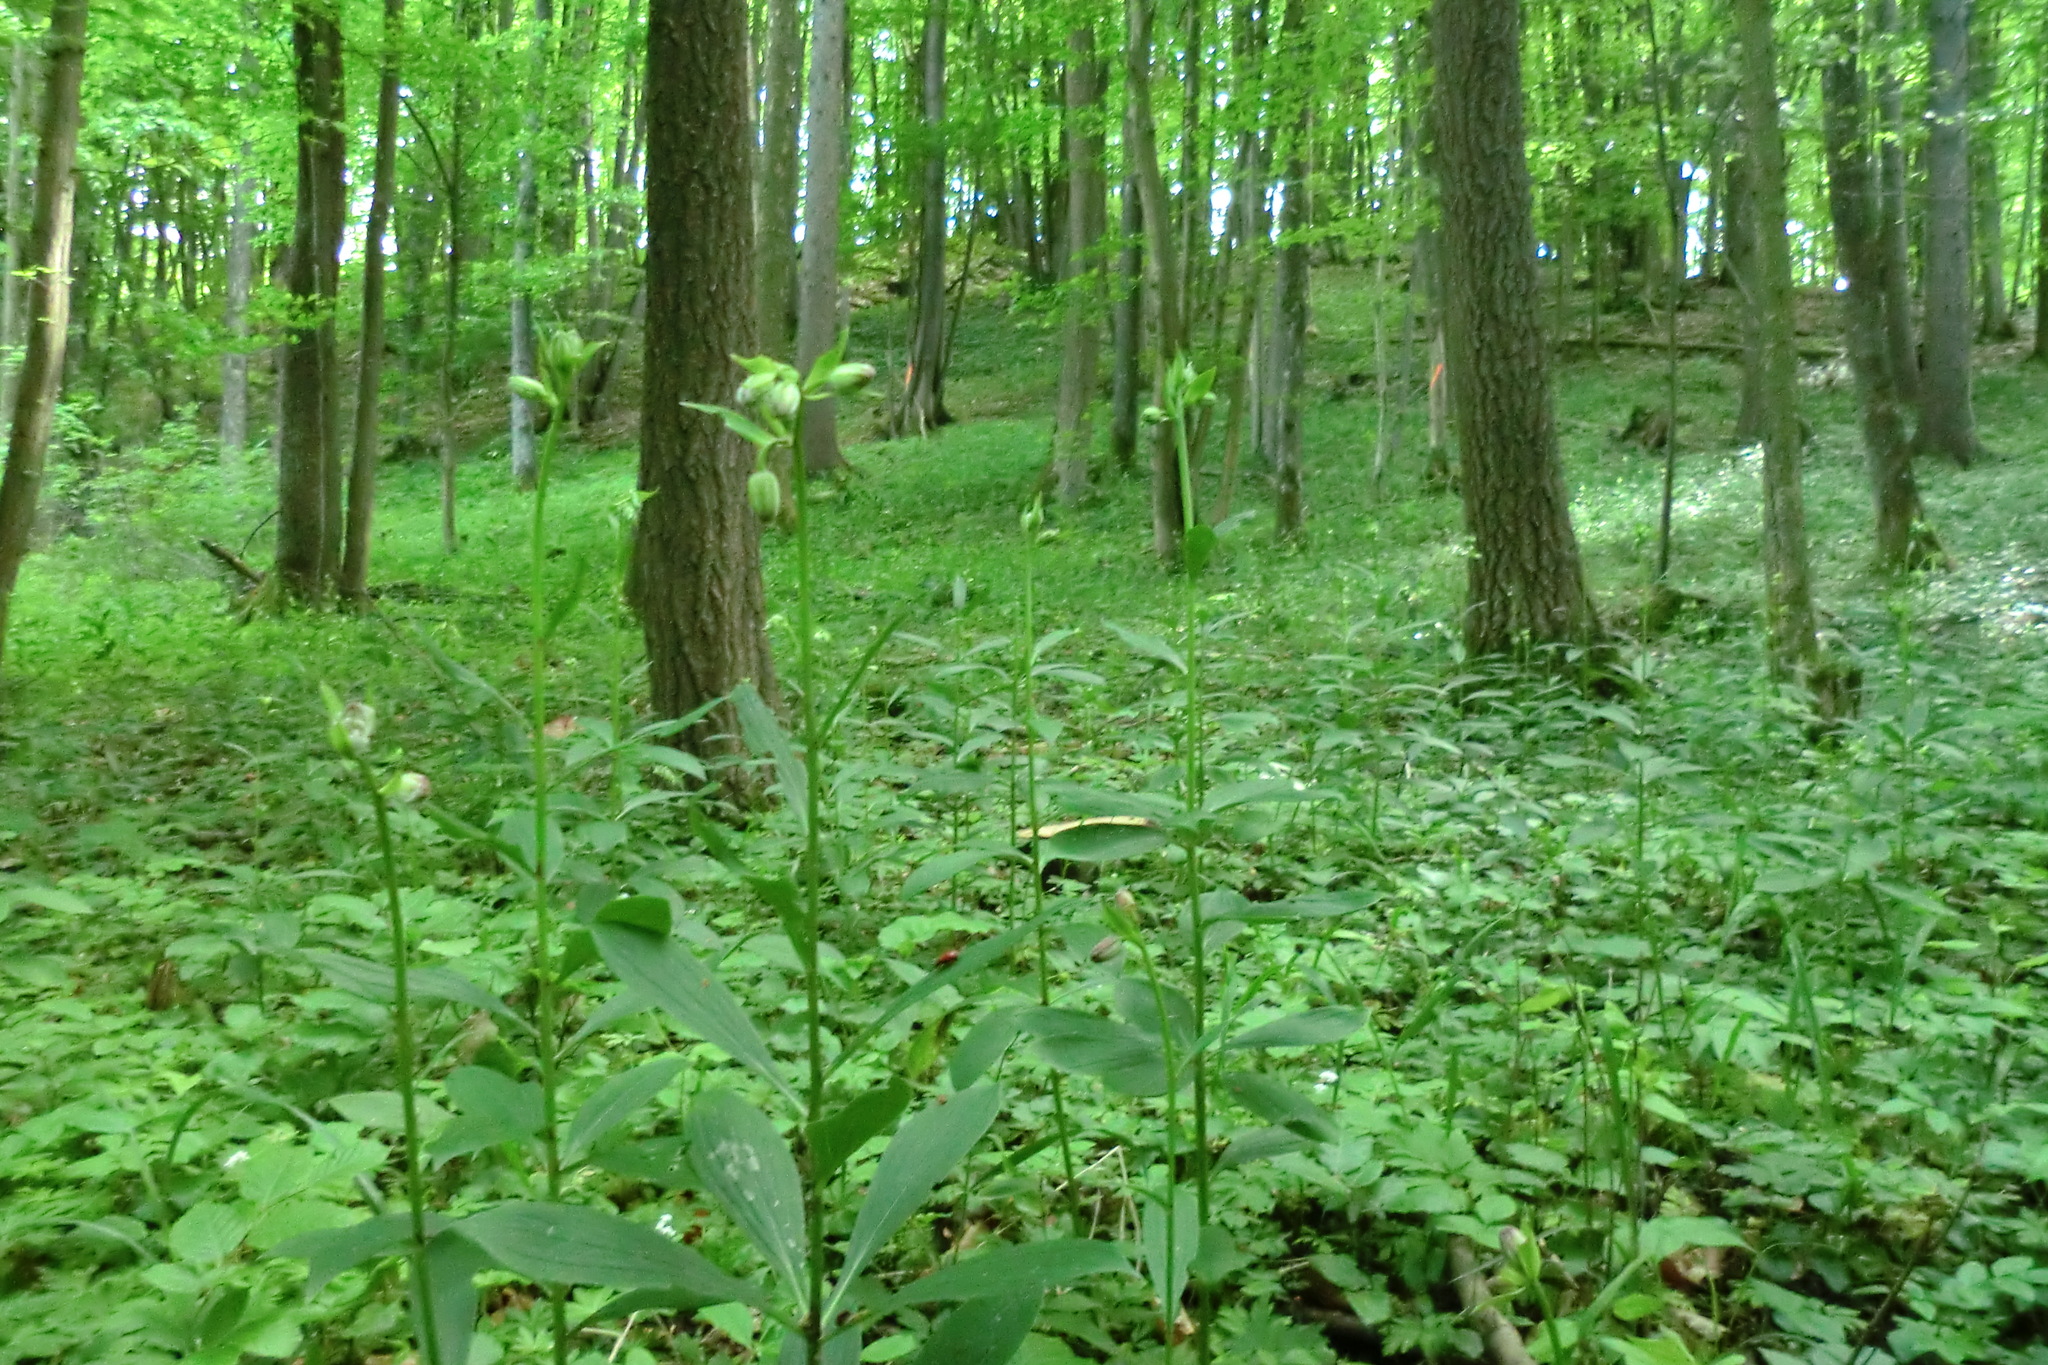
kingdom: Plantae
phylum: Tracheophyta
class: Liliopsida
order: Liliales
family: Liliaceae
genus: Lilium
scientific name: Lilium martagon
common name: Martagon lily
